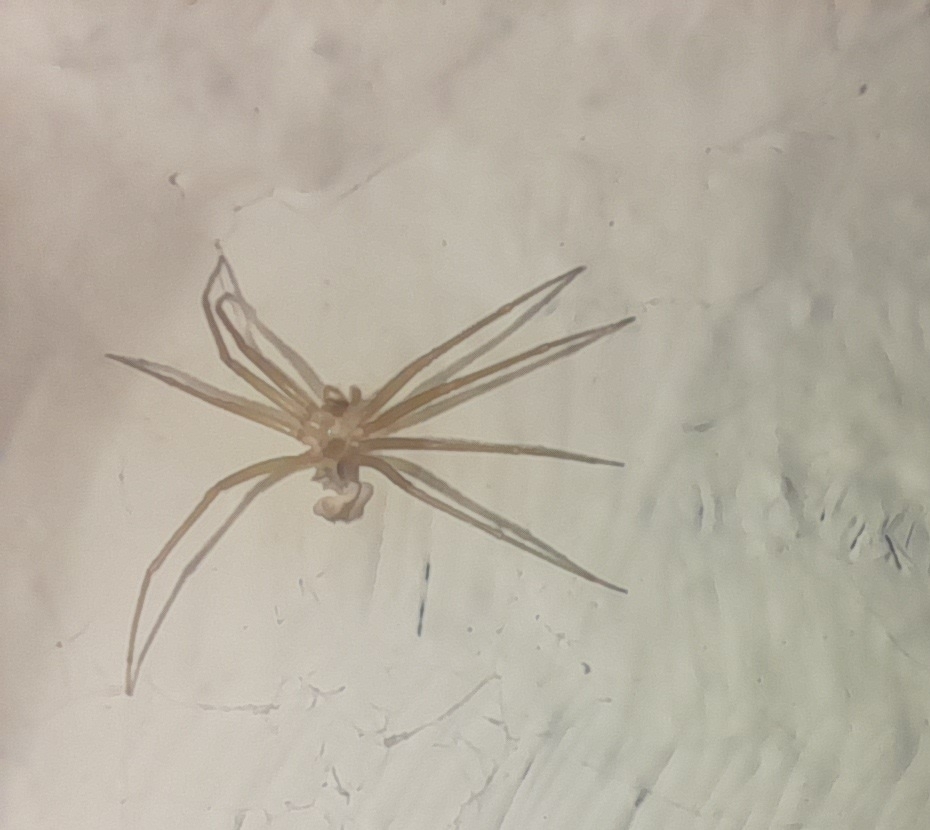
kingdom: Animalia
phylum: Arthropoda
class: Arachnida
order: Araneae
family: Sicariidae
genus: Loxosceles
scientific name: Loxosceles rufescens
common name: Mediterranean recluse spider
